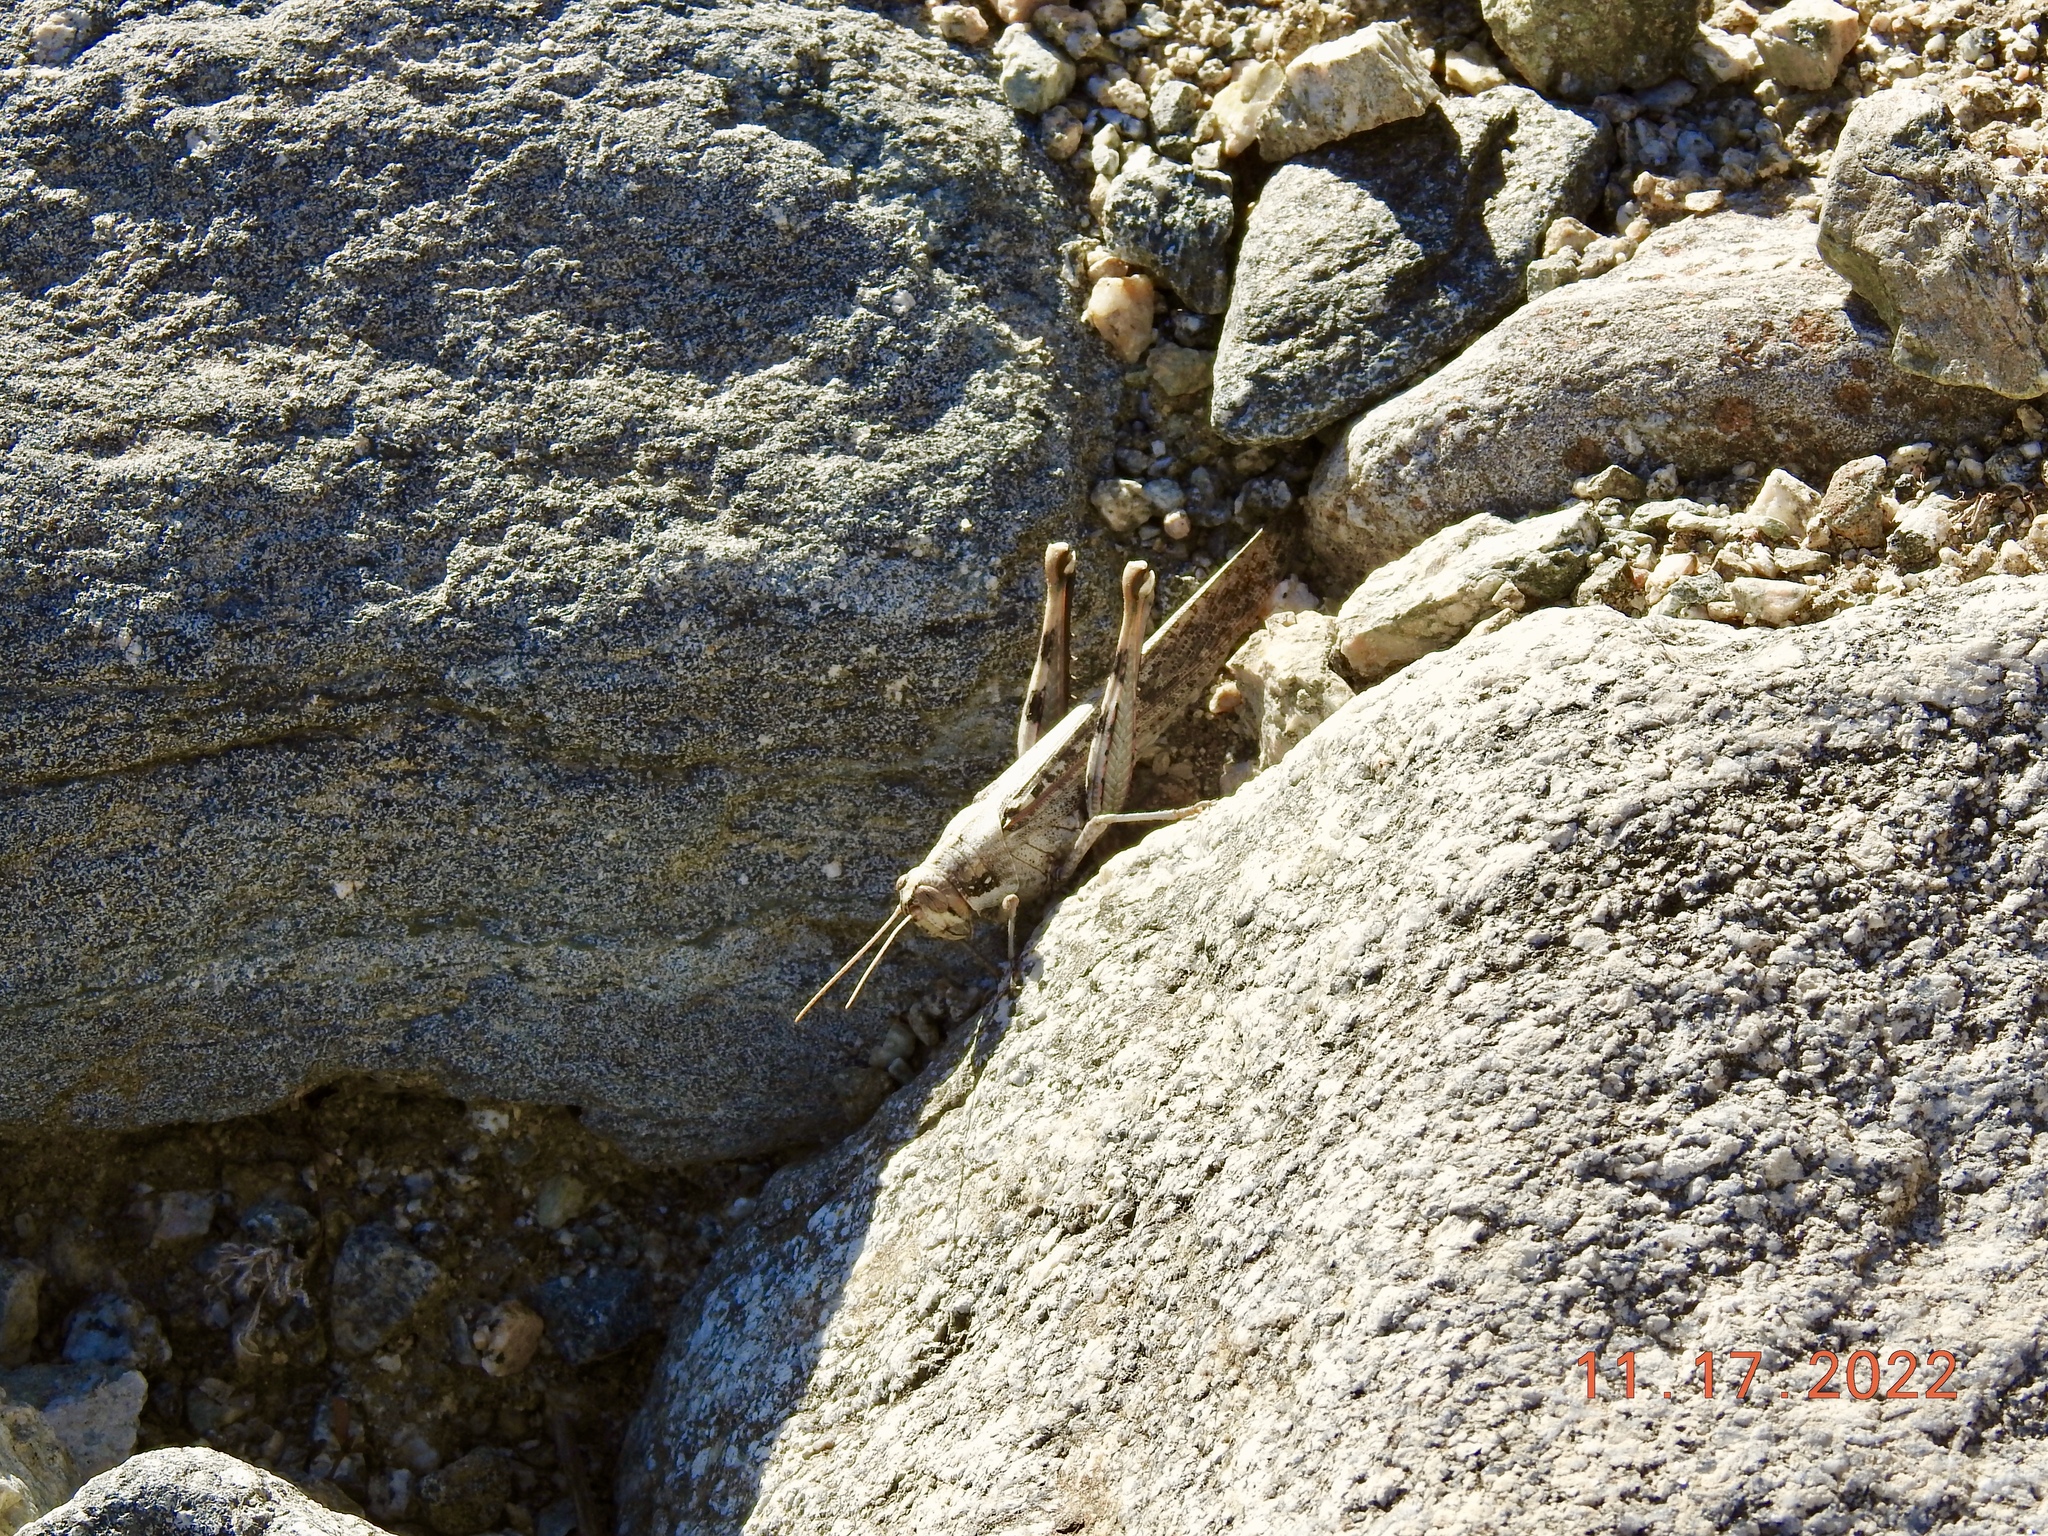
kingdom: Animalia
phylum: Arthropoda
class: Insecta
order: Orthoptera
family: Acrididae
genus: Schistocerca
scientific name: Schistocerca nitens
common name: Vagrant grasshopper
